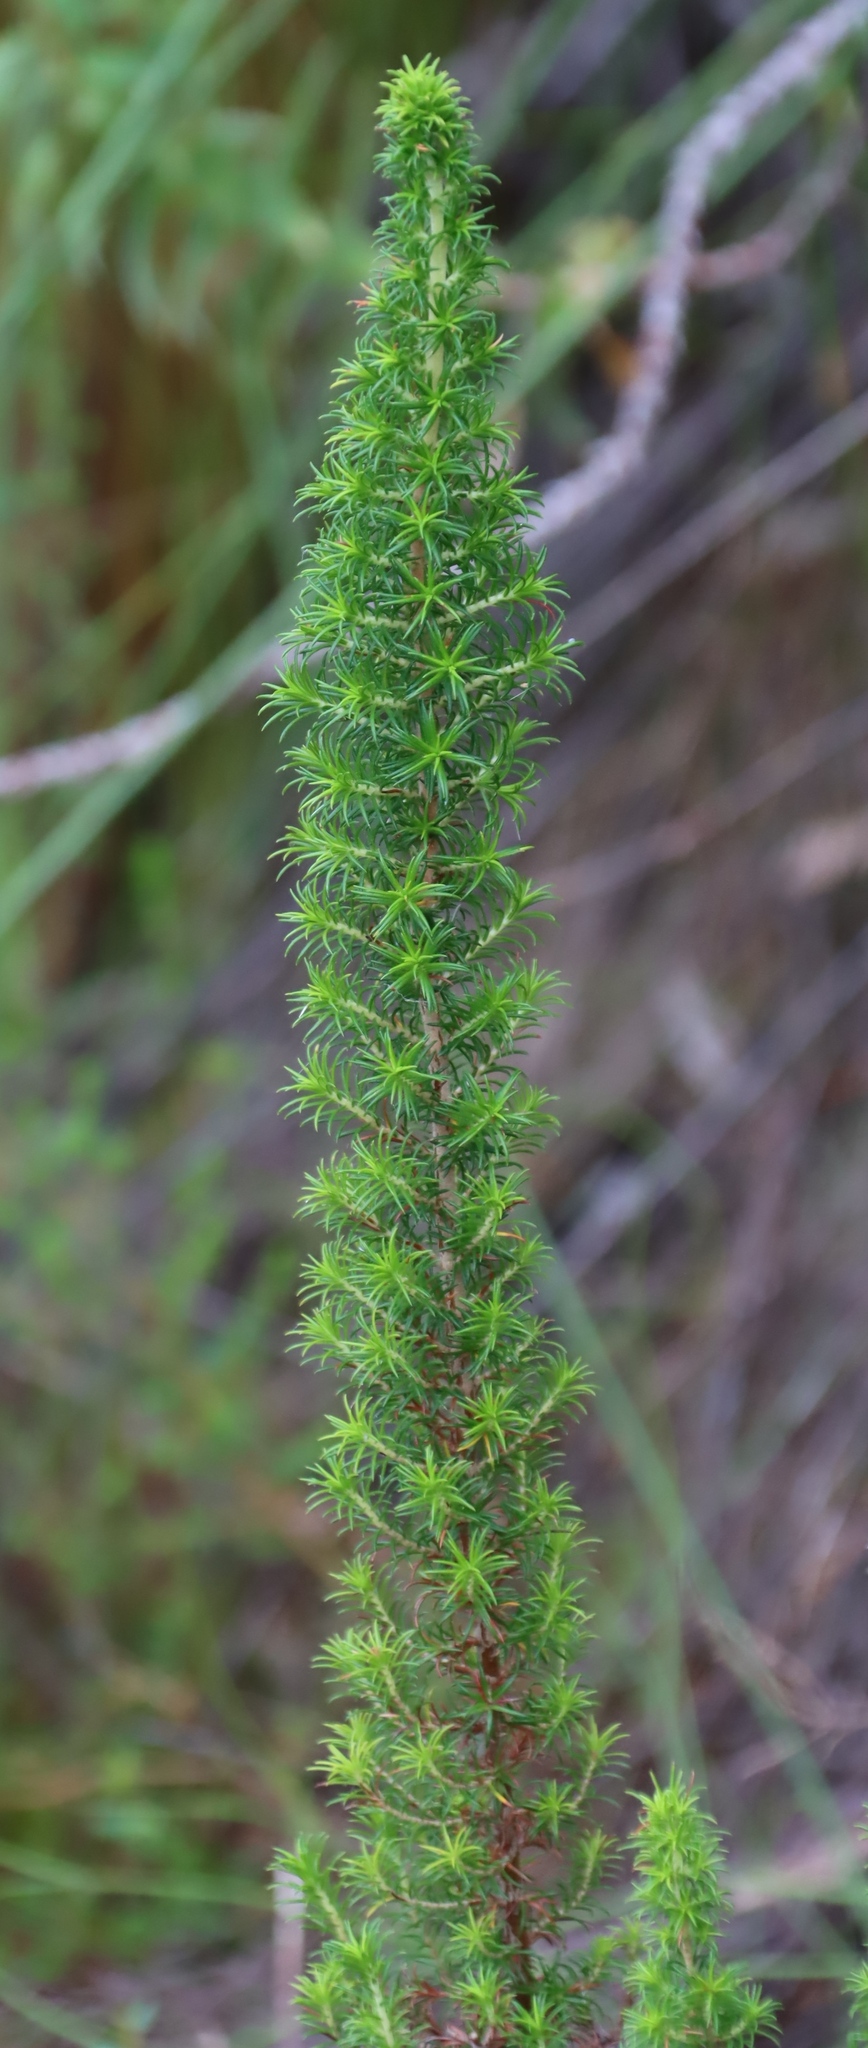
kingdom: Plantae
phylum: Tracheophyta
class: Magnoliopsida
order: Ericales
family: Ericaceae
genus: Erica
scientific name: Erica coccinea
